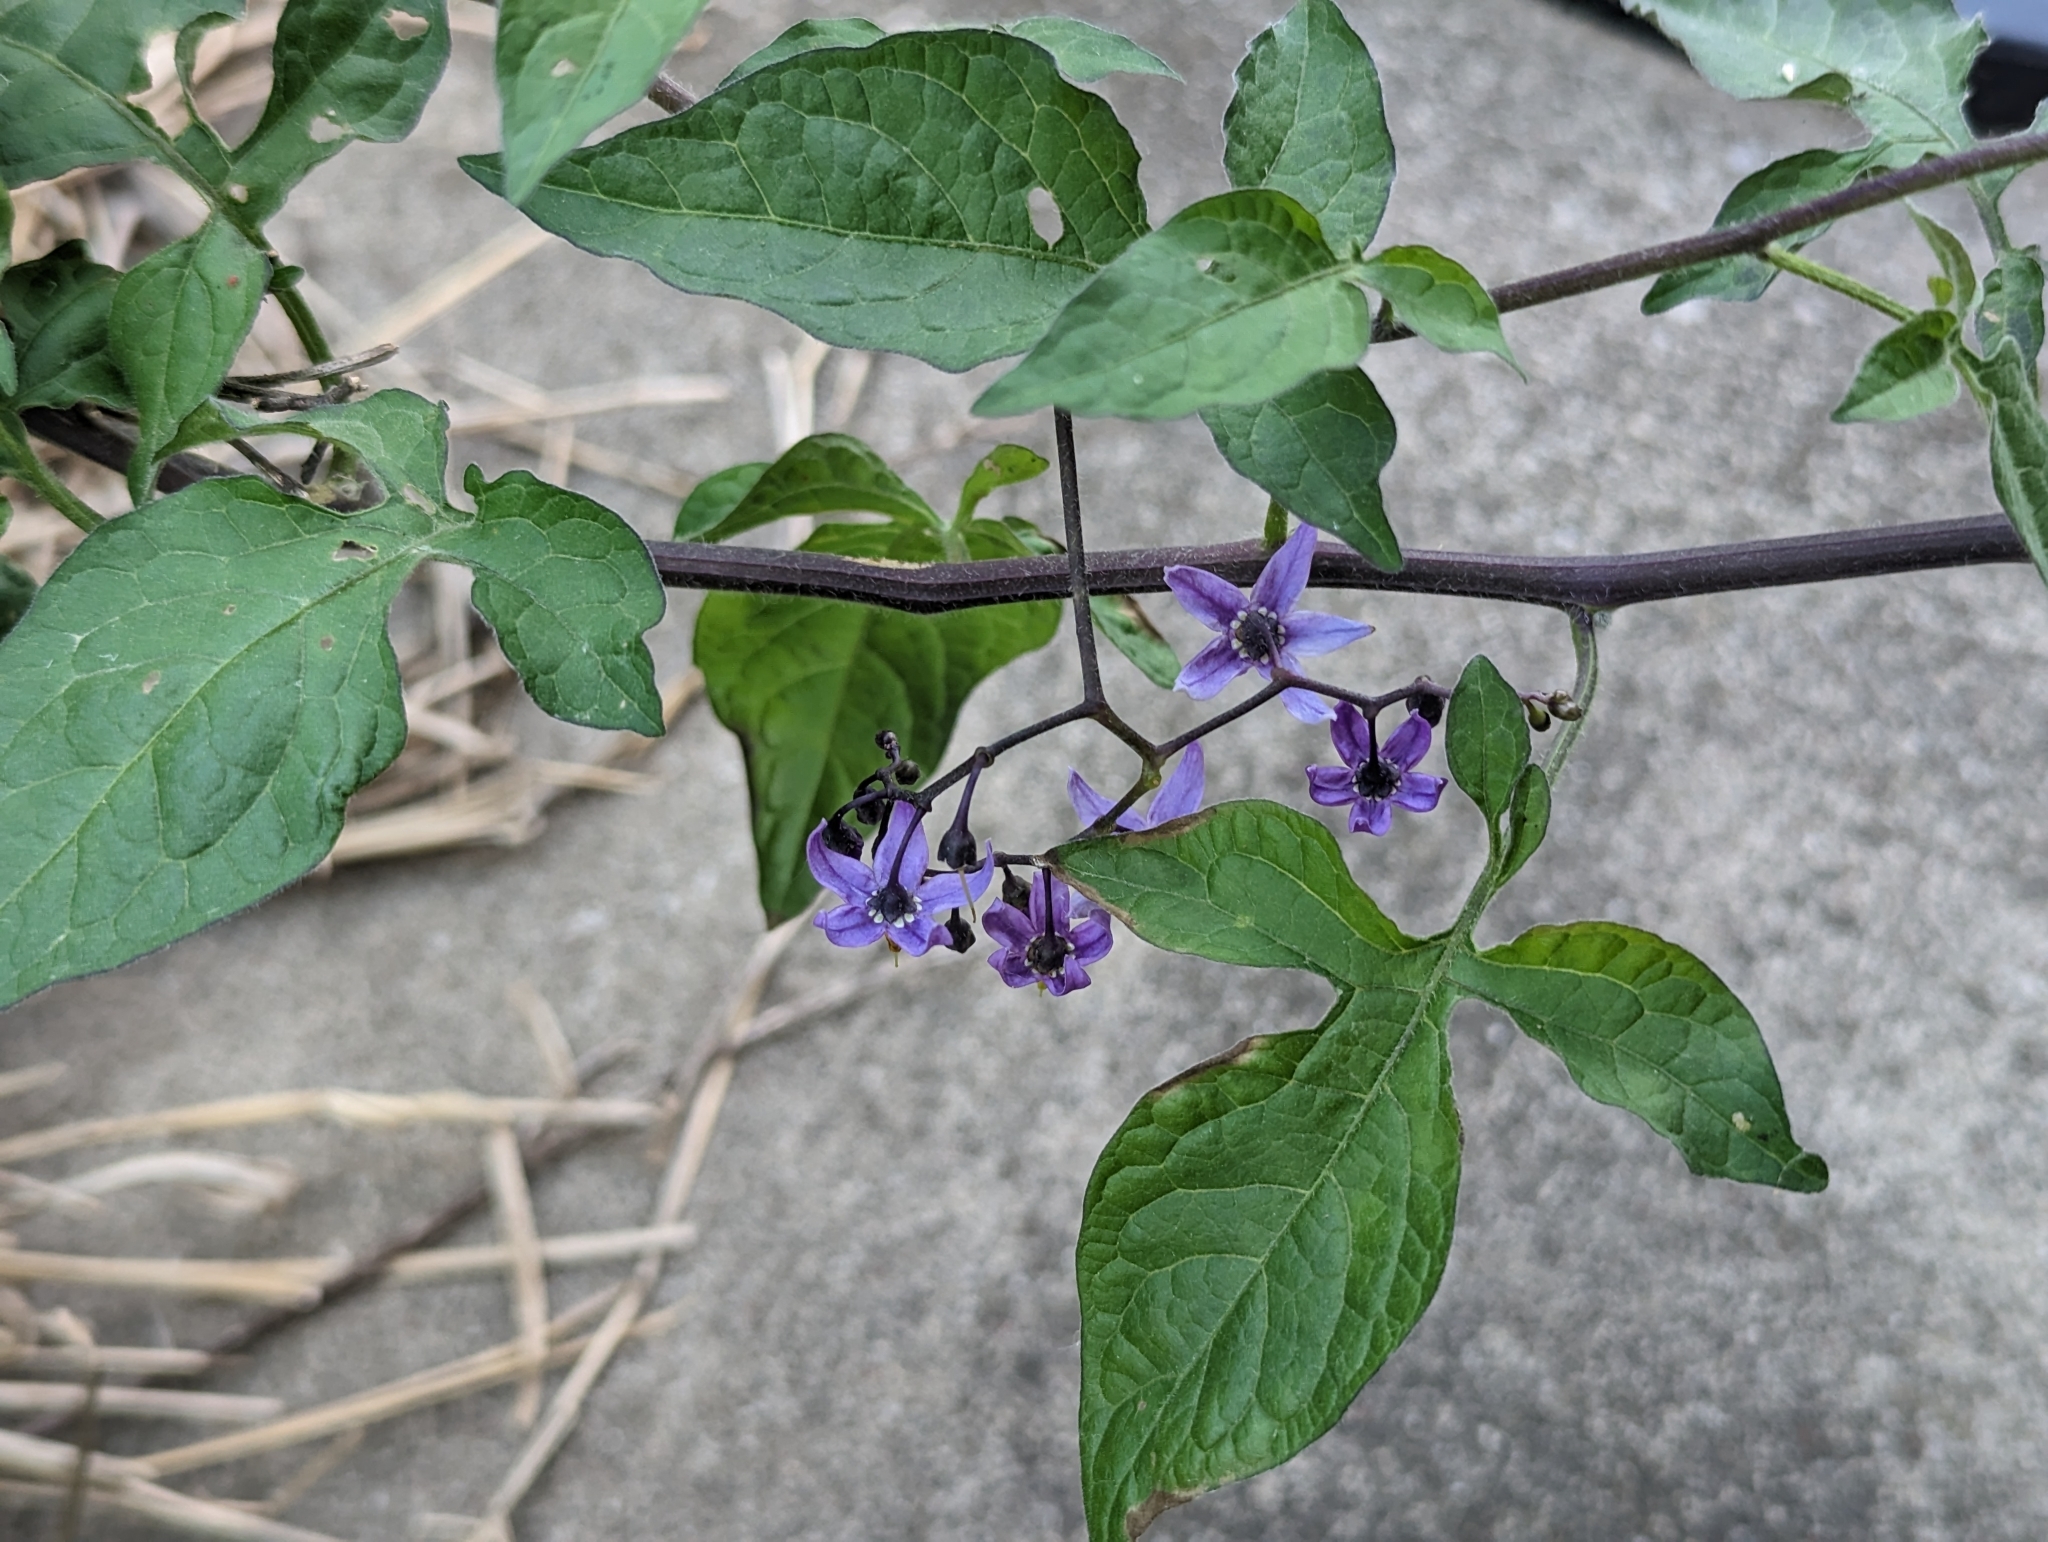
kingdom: Plantae
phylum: Tracheophyta
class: Magnoliopsida
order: Solanales
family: Solanaceae
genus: Solanum
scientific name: Solanum dulcamara
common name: Climbing nightshade
